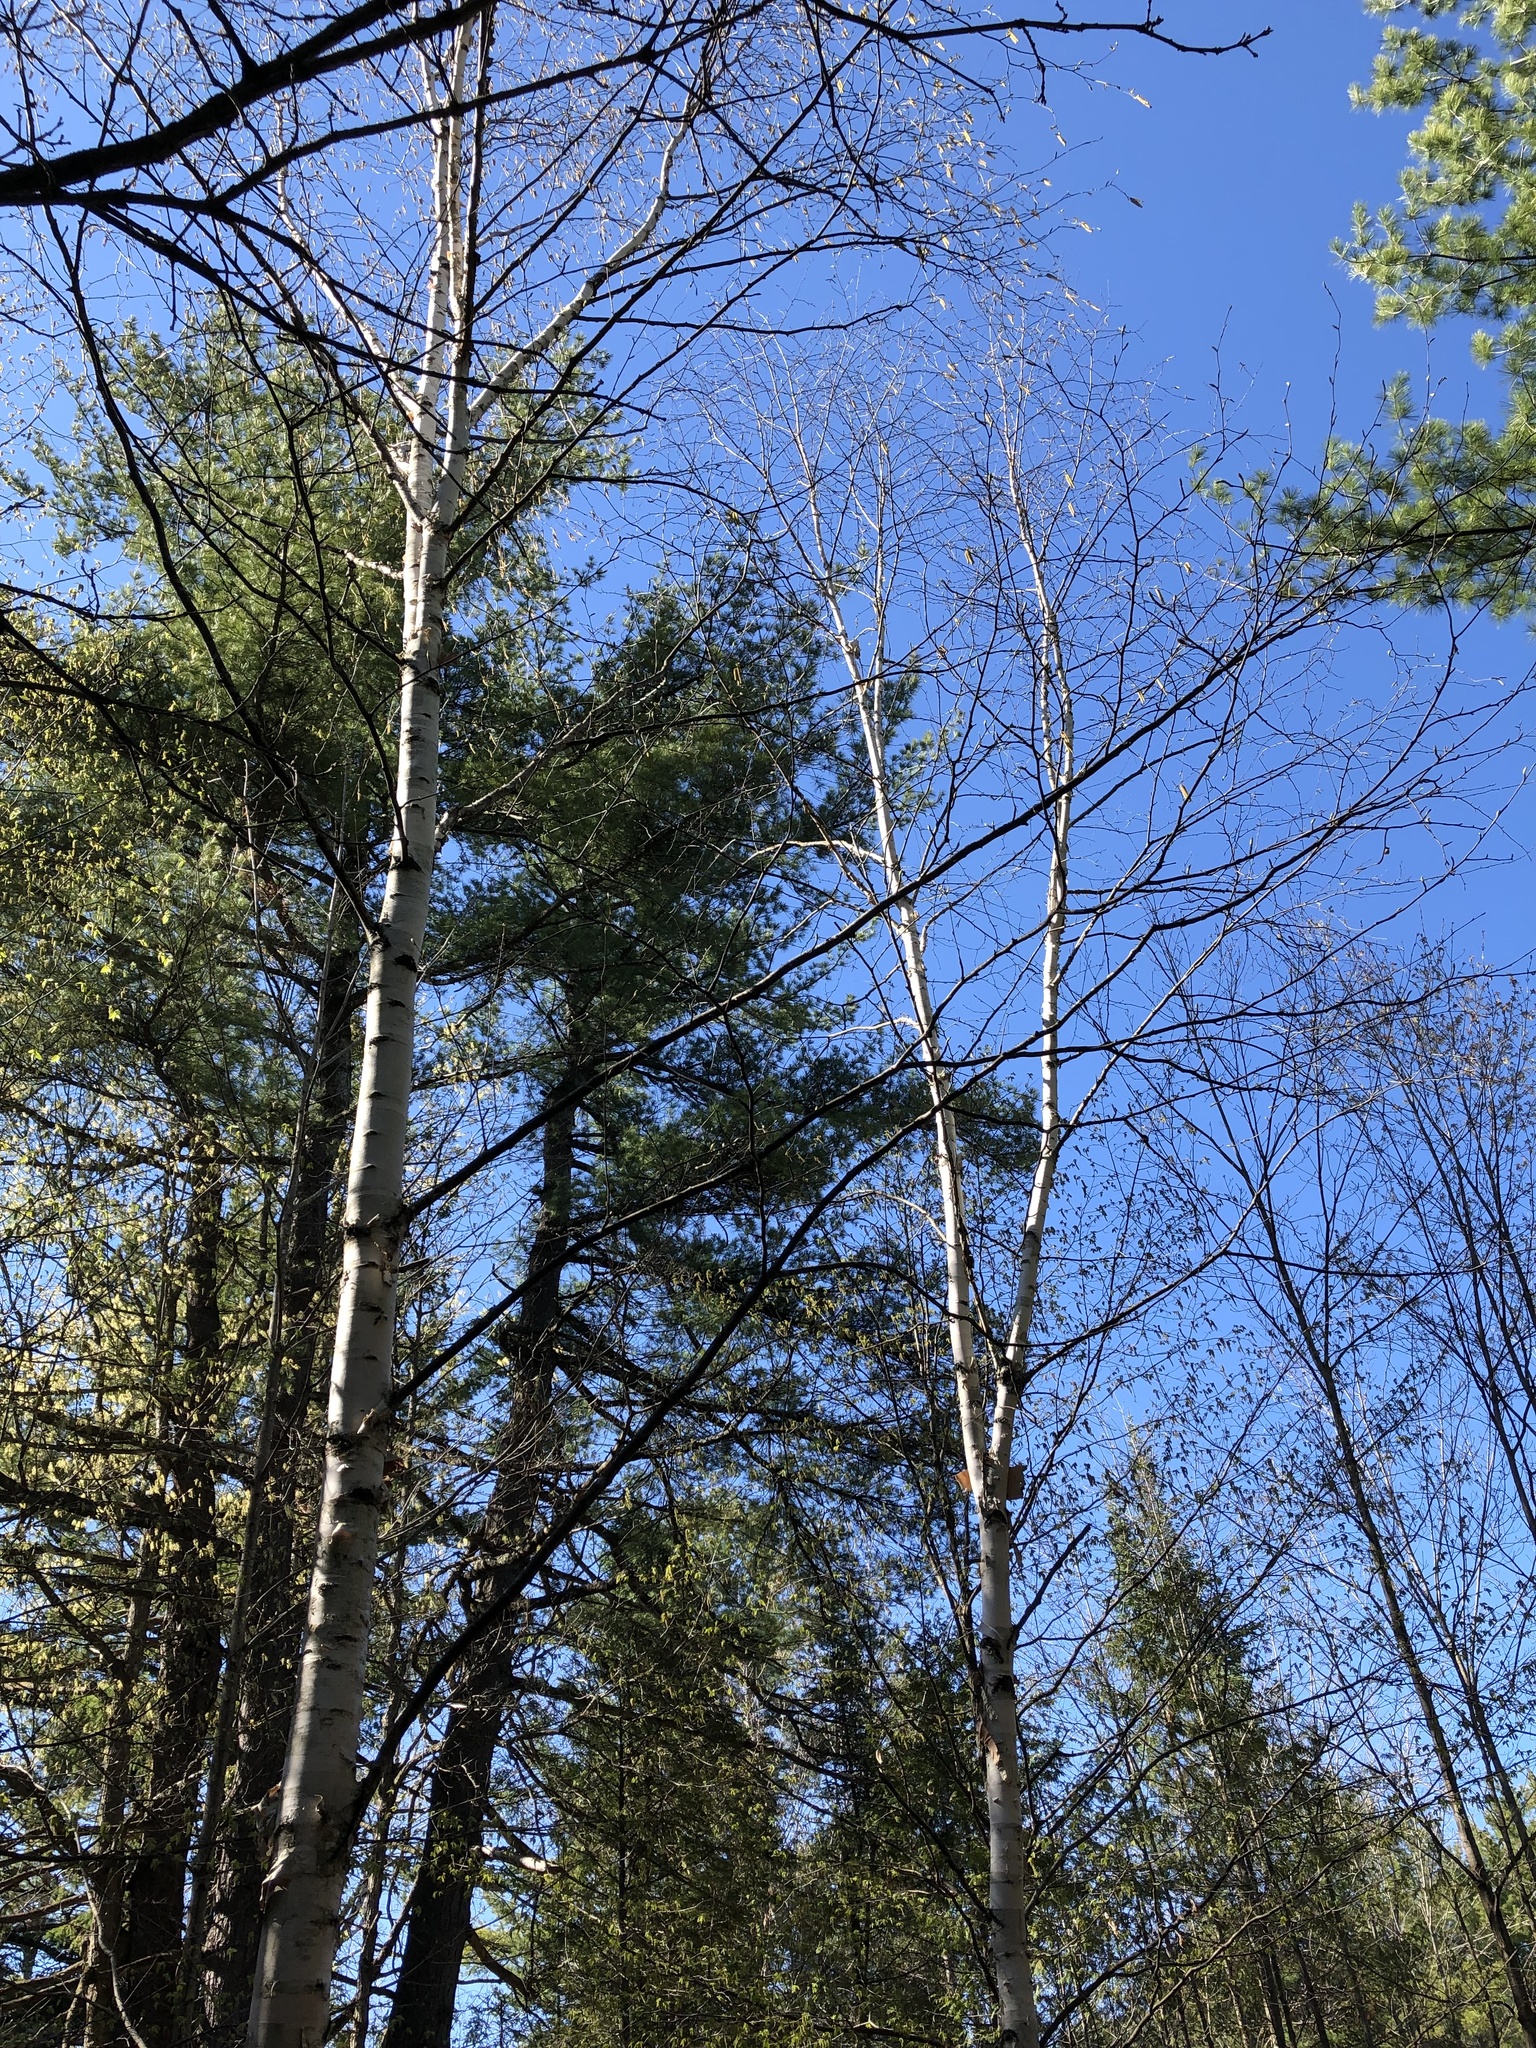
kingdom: Plantae
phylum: Tracheophyta
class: Magnoliopsida
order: Fagales
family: Betulaceae
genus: Betula
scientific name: Betula papyrifera
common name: Paper birch
